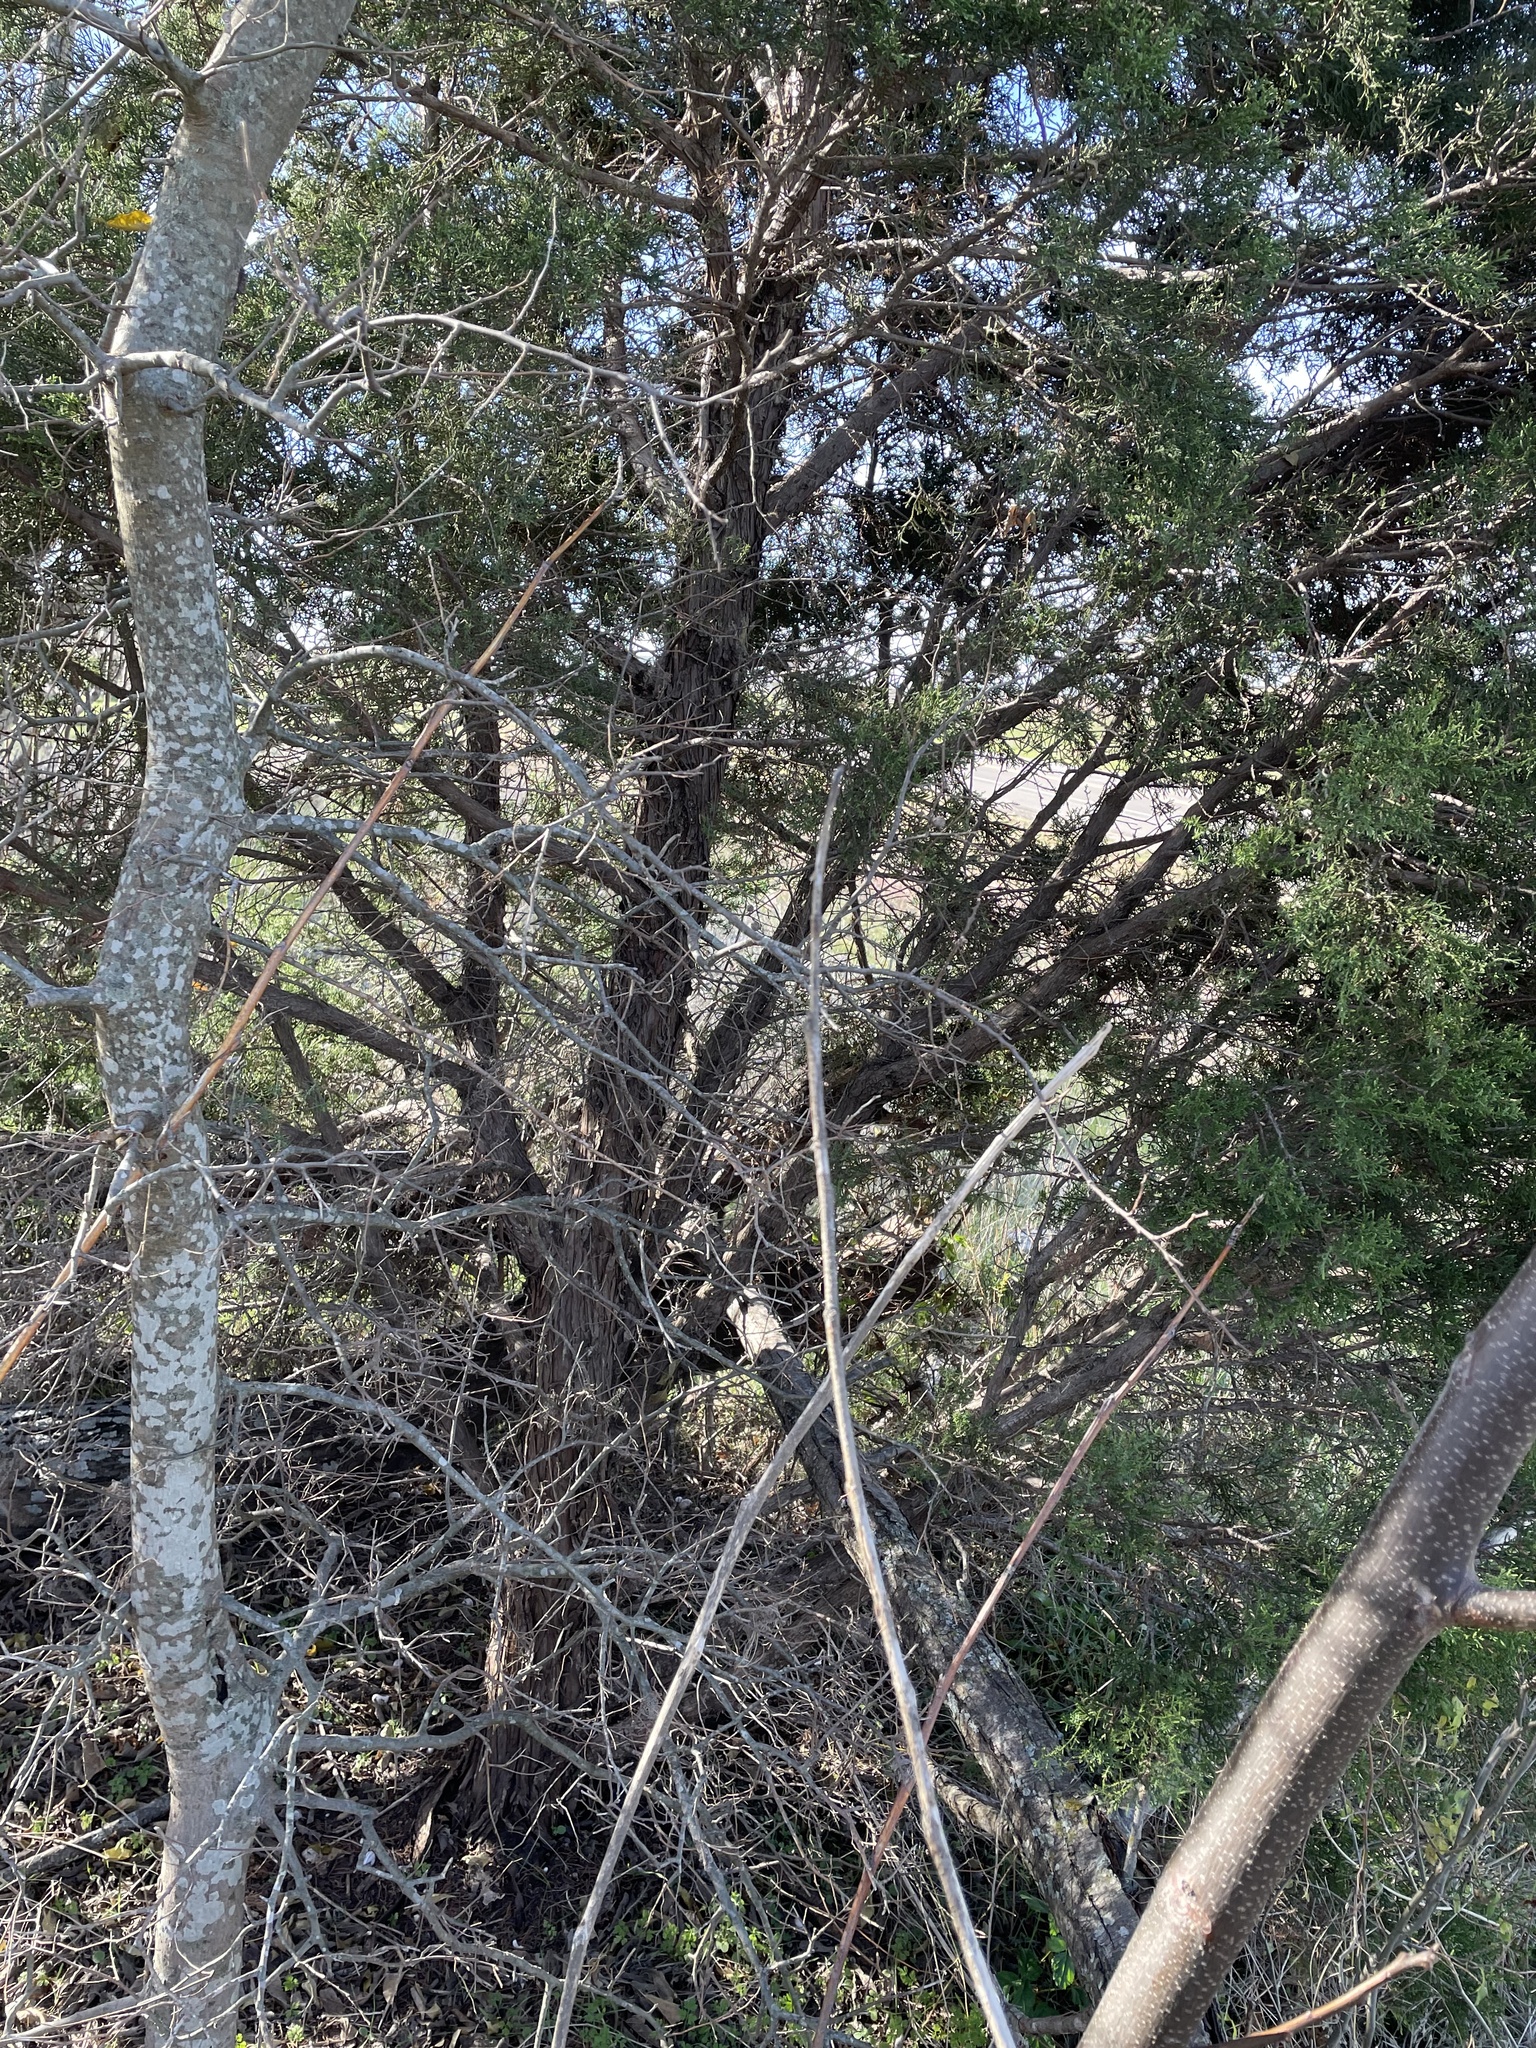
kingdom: Plantae
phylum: Tracheophyta
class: Pinopsida
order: Pinales
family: Cupressaceae
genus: Juniperus
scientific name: Juniperus ashei
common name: Mexican juniper
